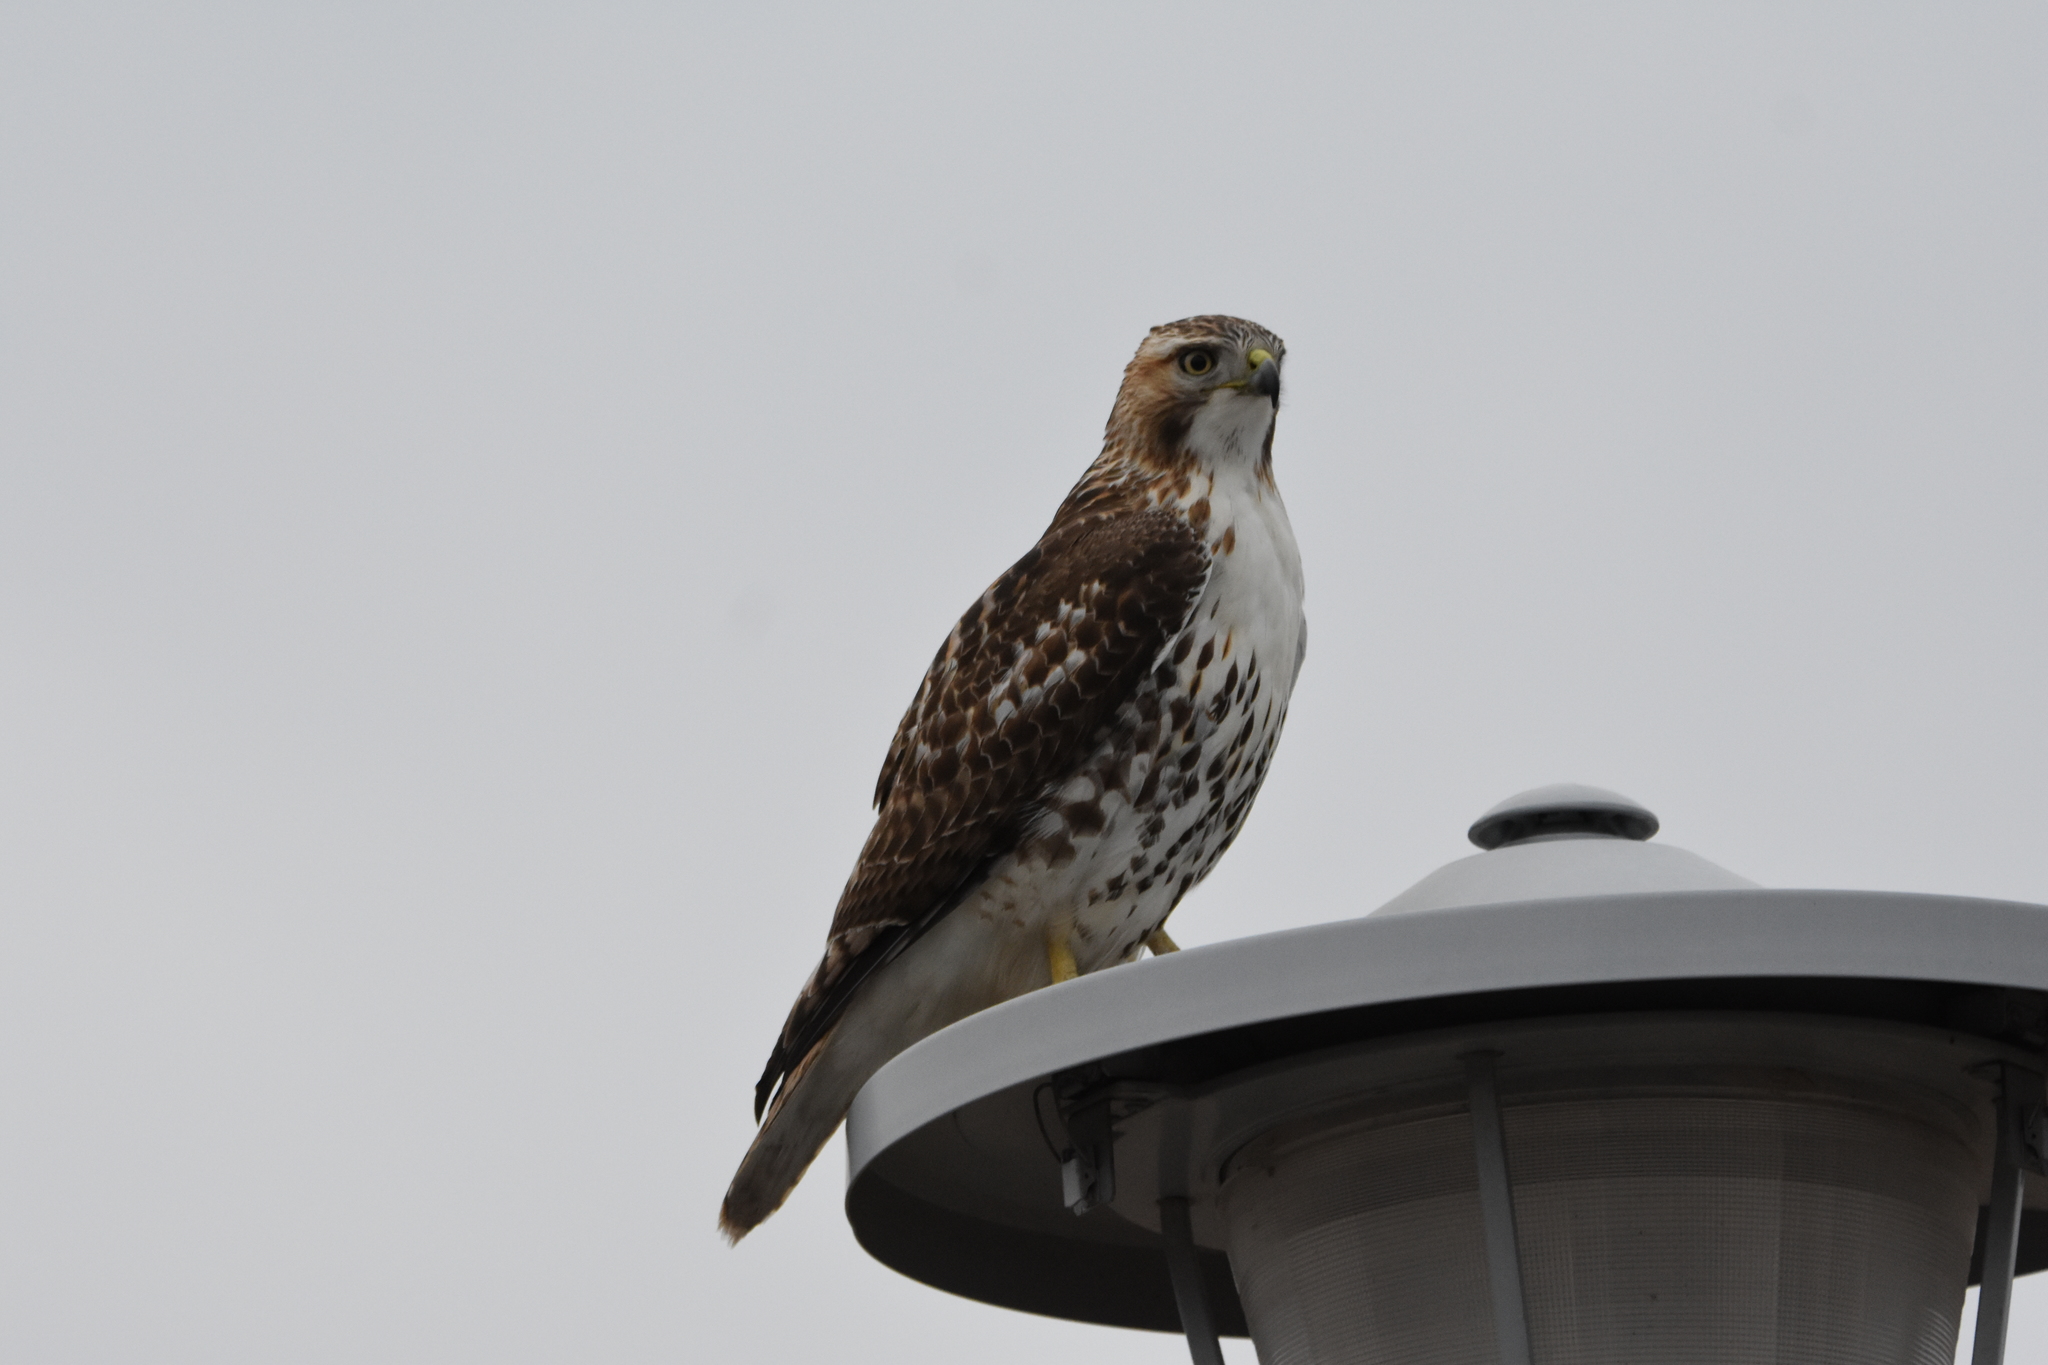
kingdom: Animalia
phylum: Chordata
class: Aves
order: Accipitriformes
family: Accipitridae
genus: Buteo
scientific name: Buteo jamaicensis
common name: Red-tailed hawk
